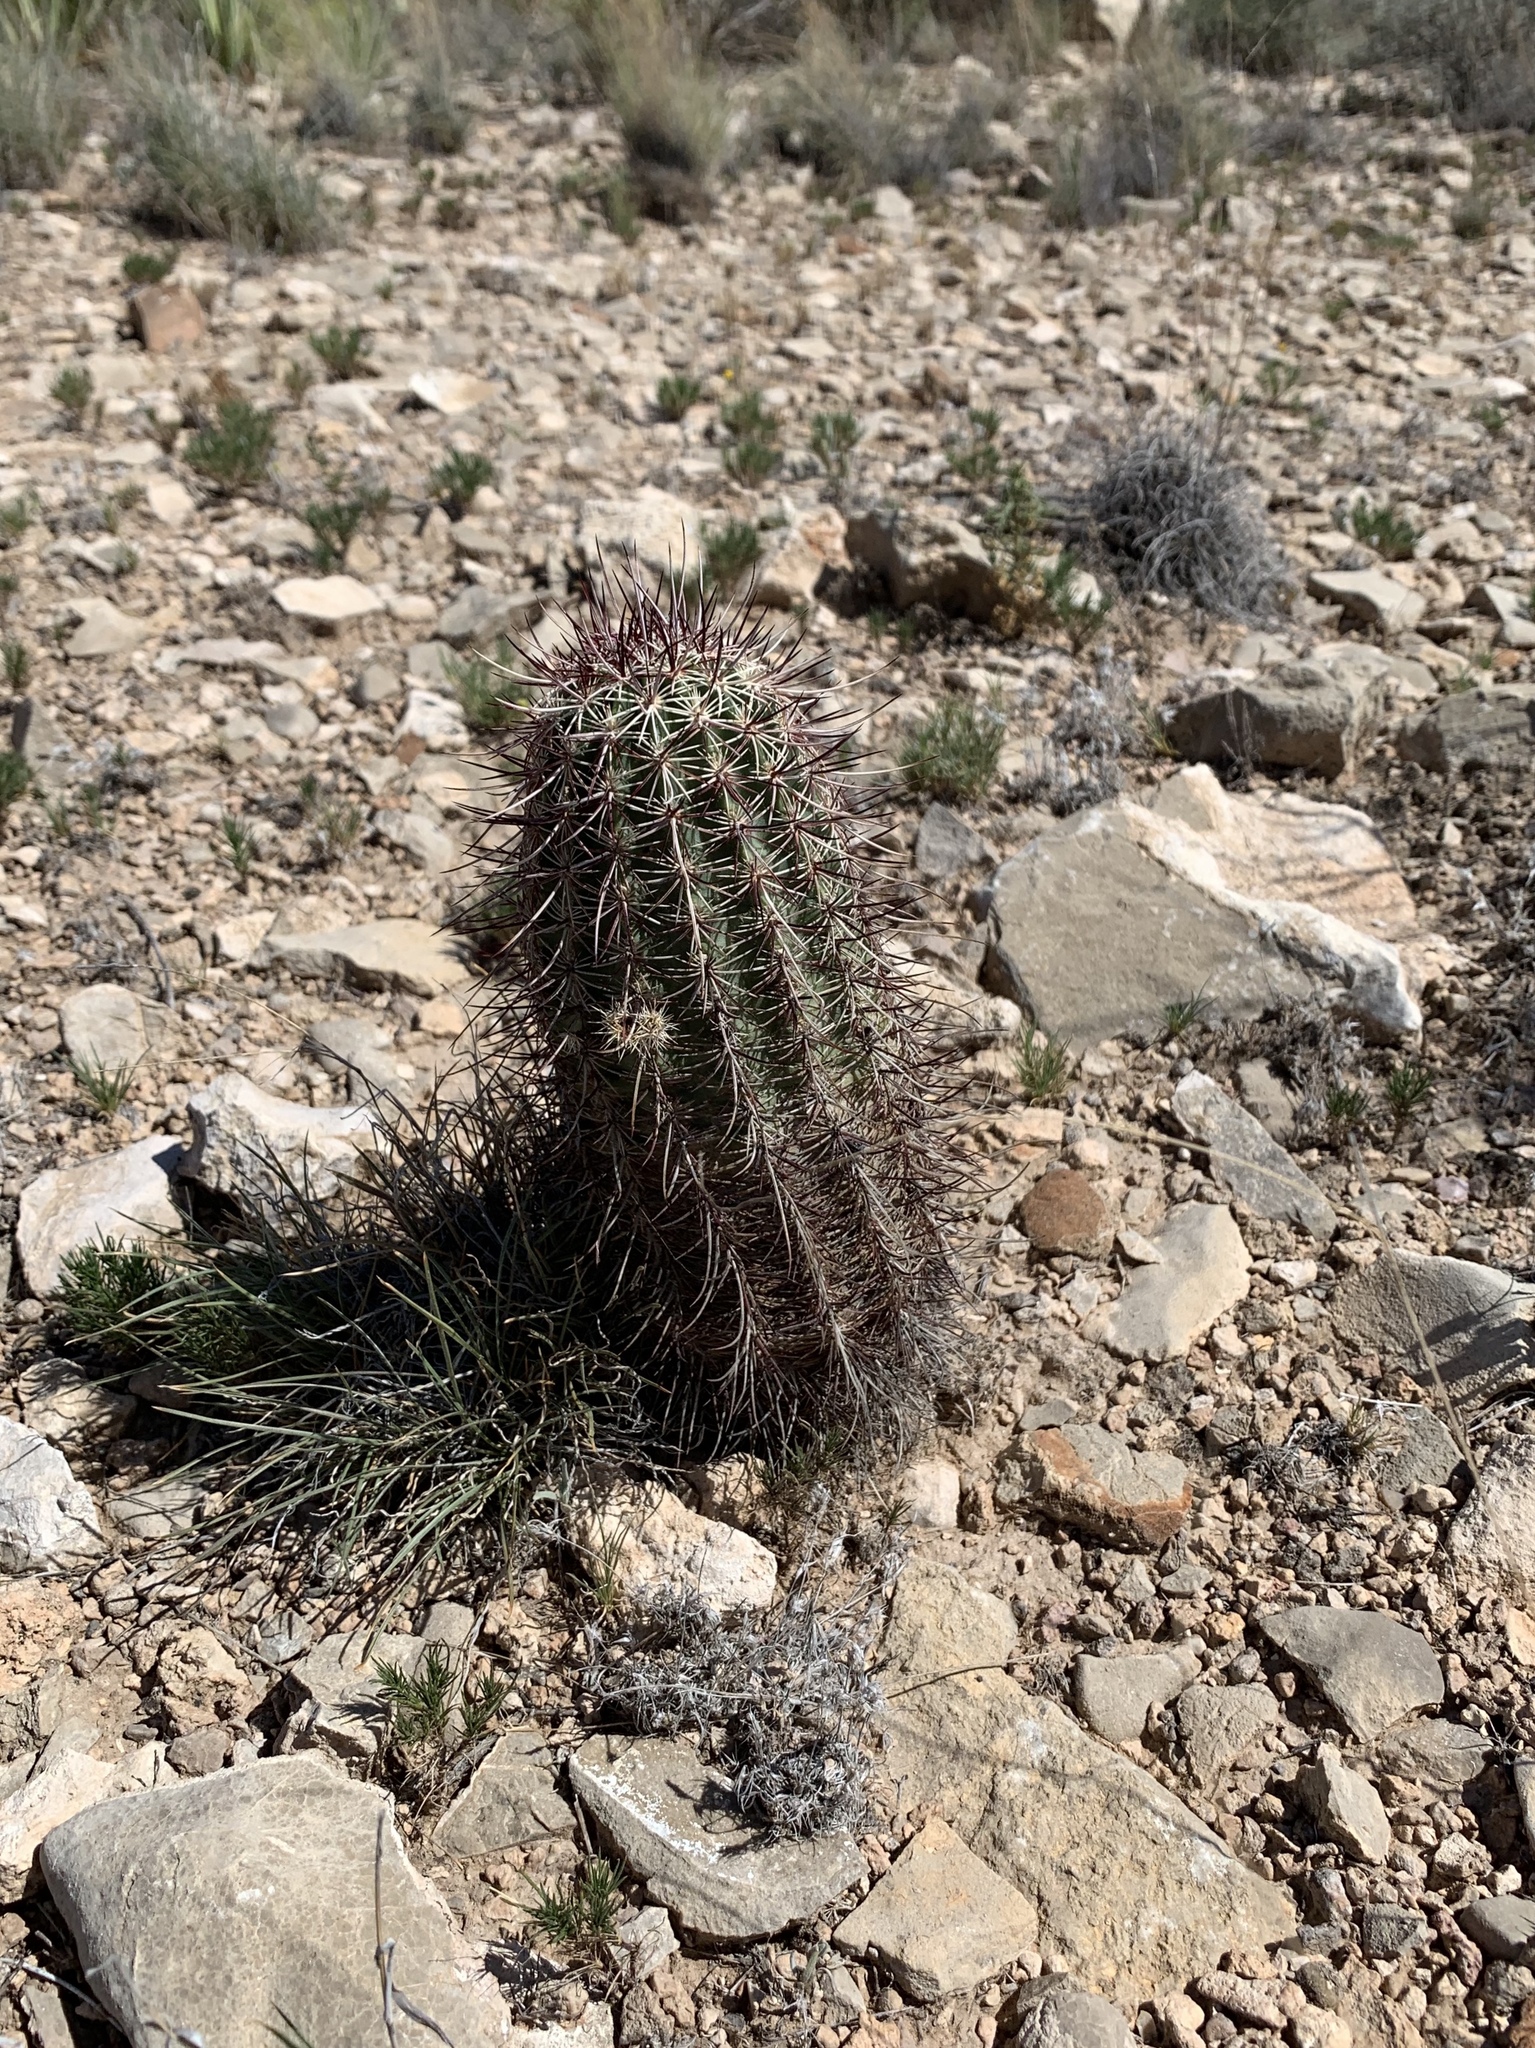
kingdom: Plantae
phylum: Tracheophyta
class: Magnoliopsida
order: Caryophyllales
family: Cactaceae
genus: Echinocereus
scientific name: Echinocereus viridiflorus
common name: Nylon hedgehog cactus
